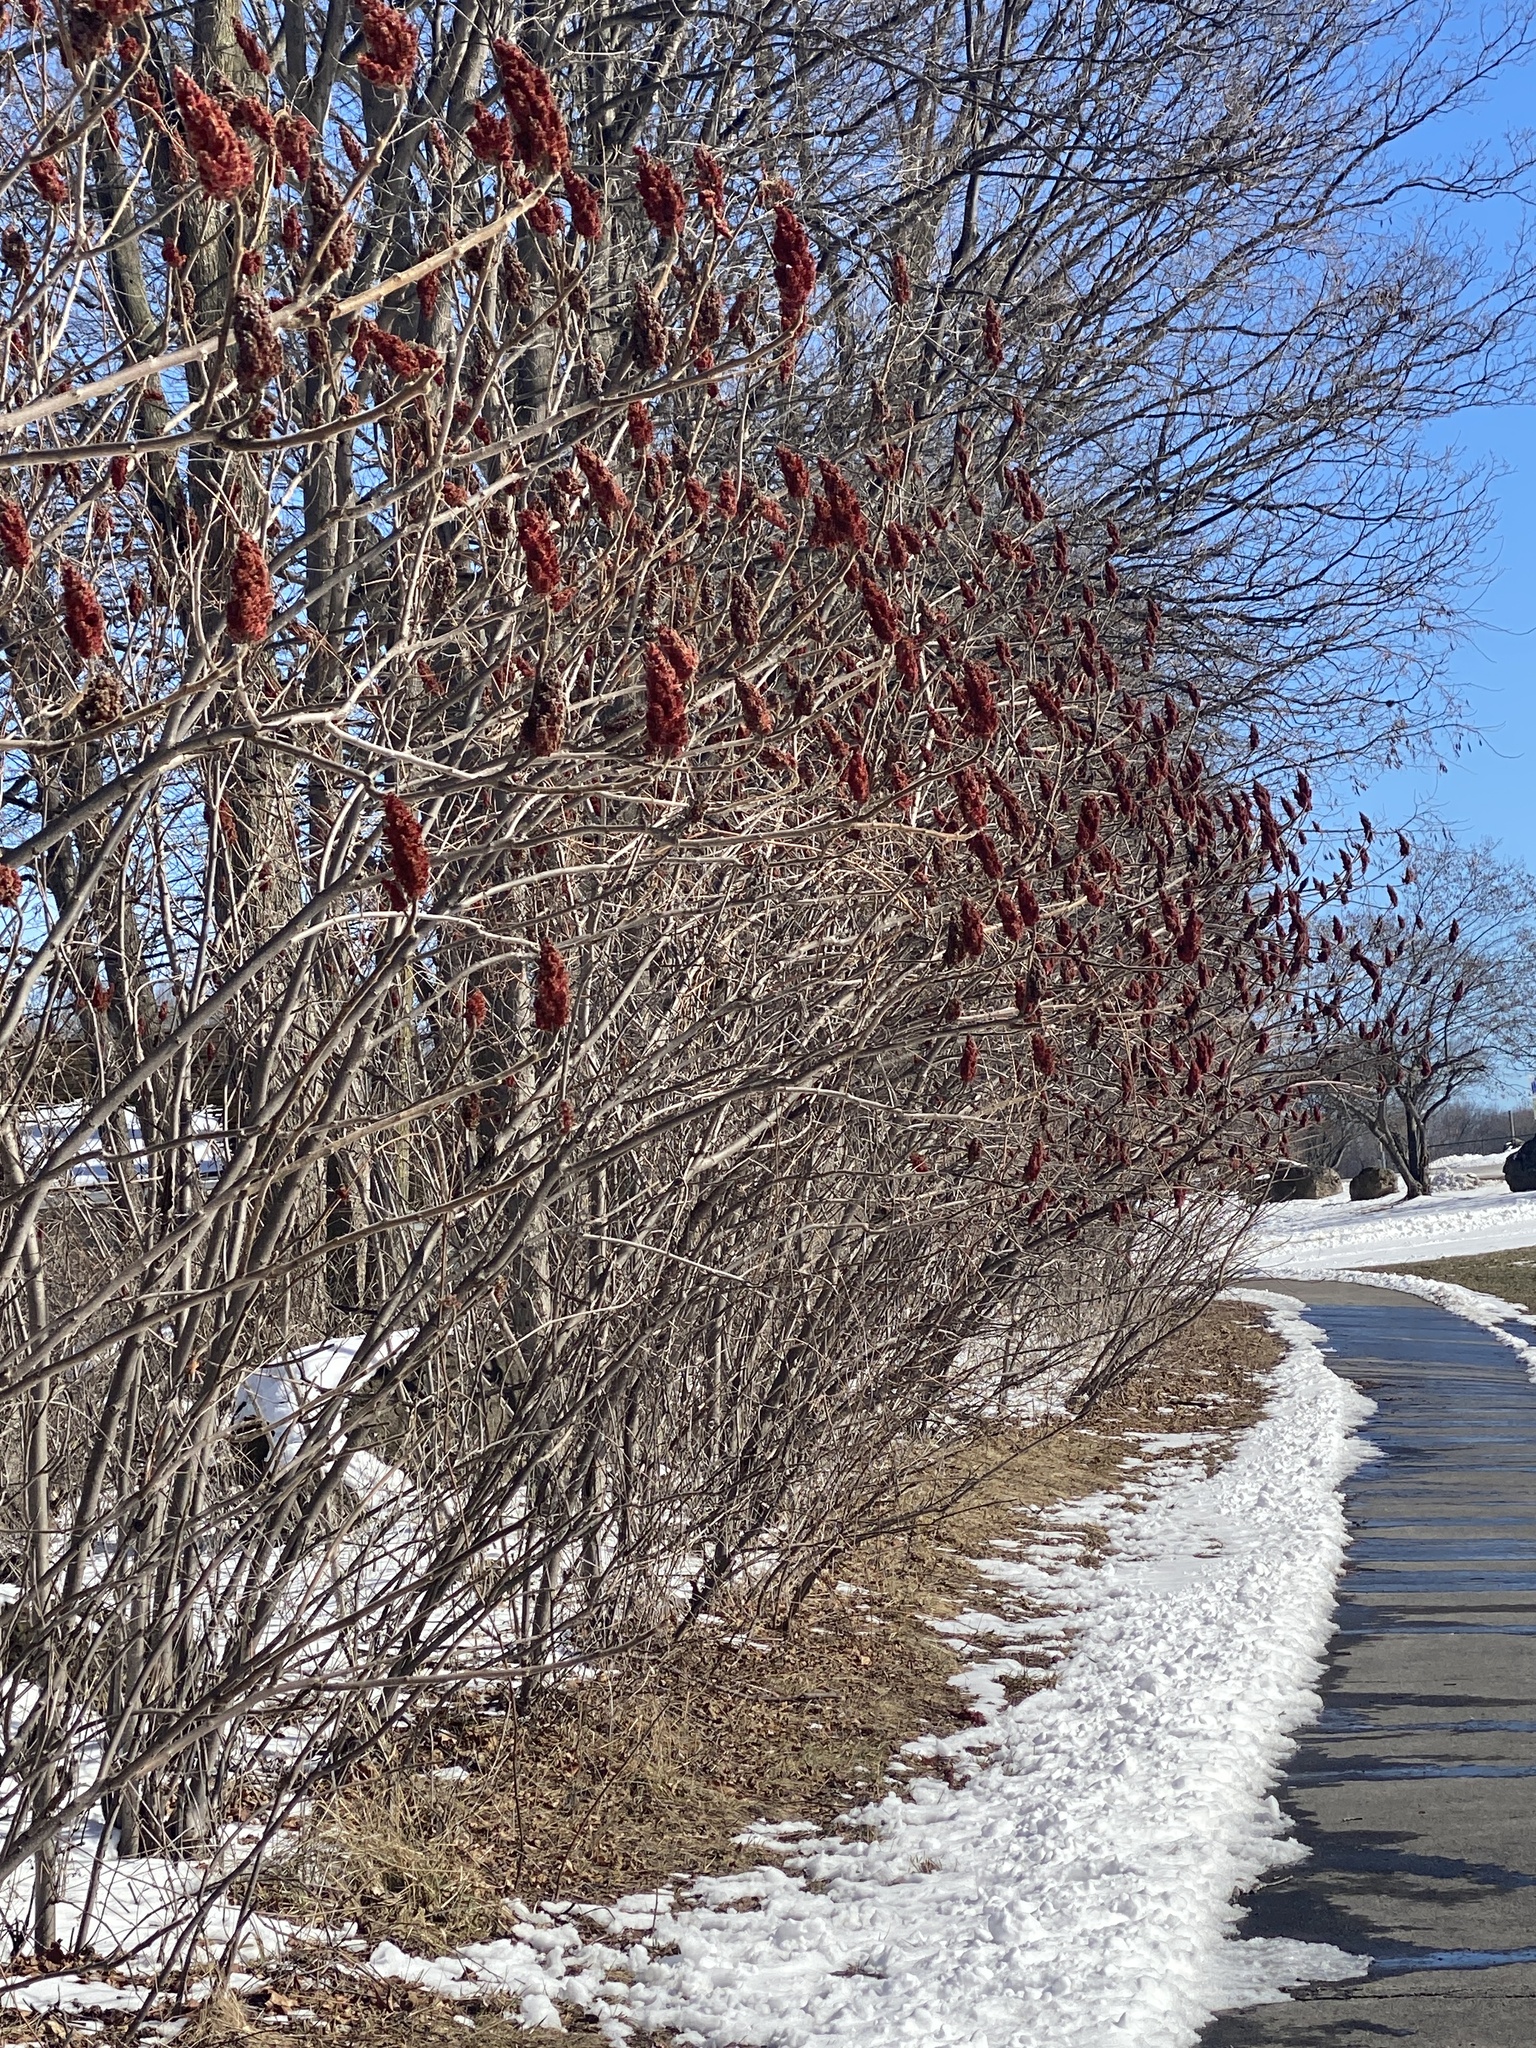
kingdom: Plantae
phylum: Tracheophyta
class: Magnoliopsida
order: Sapindales
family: Anacardiaceae
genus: Rhus
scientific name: Rhus typhina
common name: Staghorn sumac
